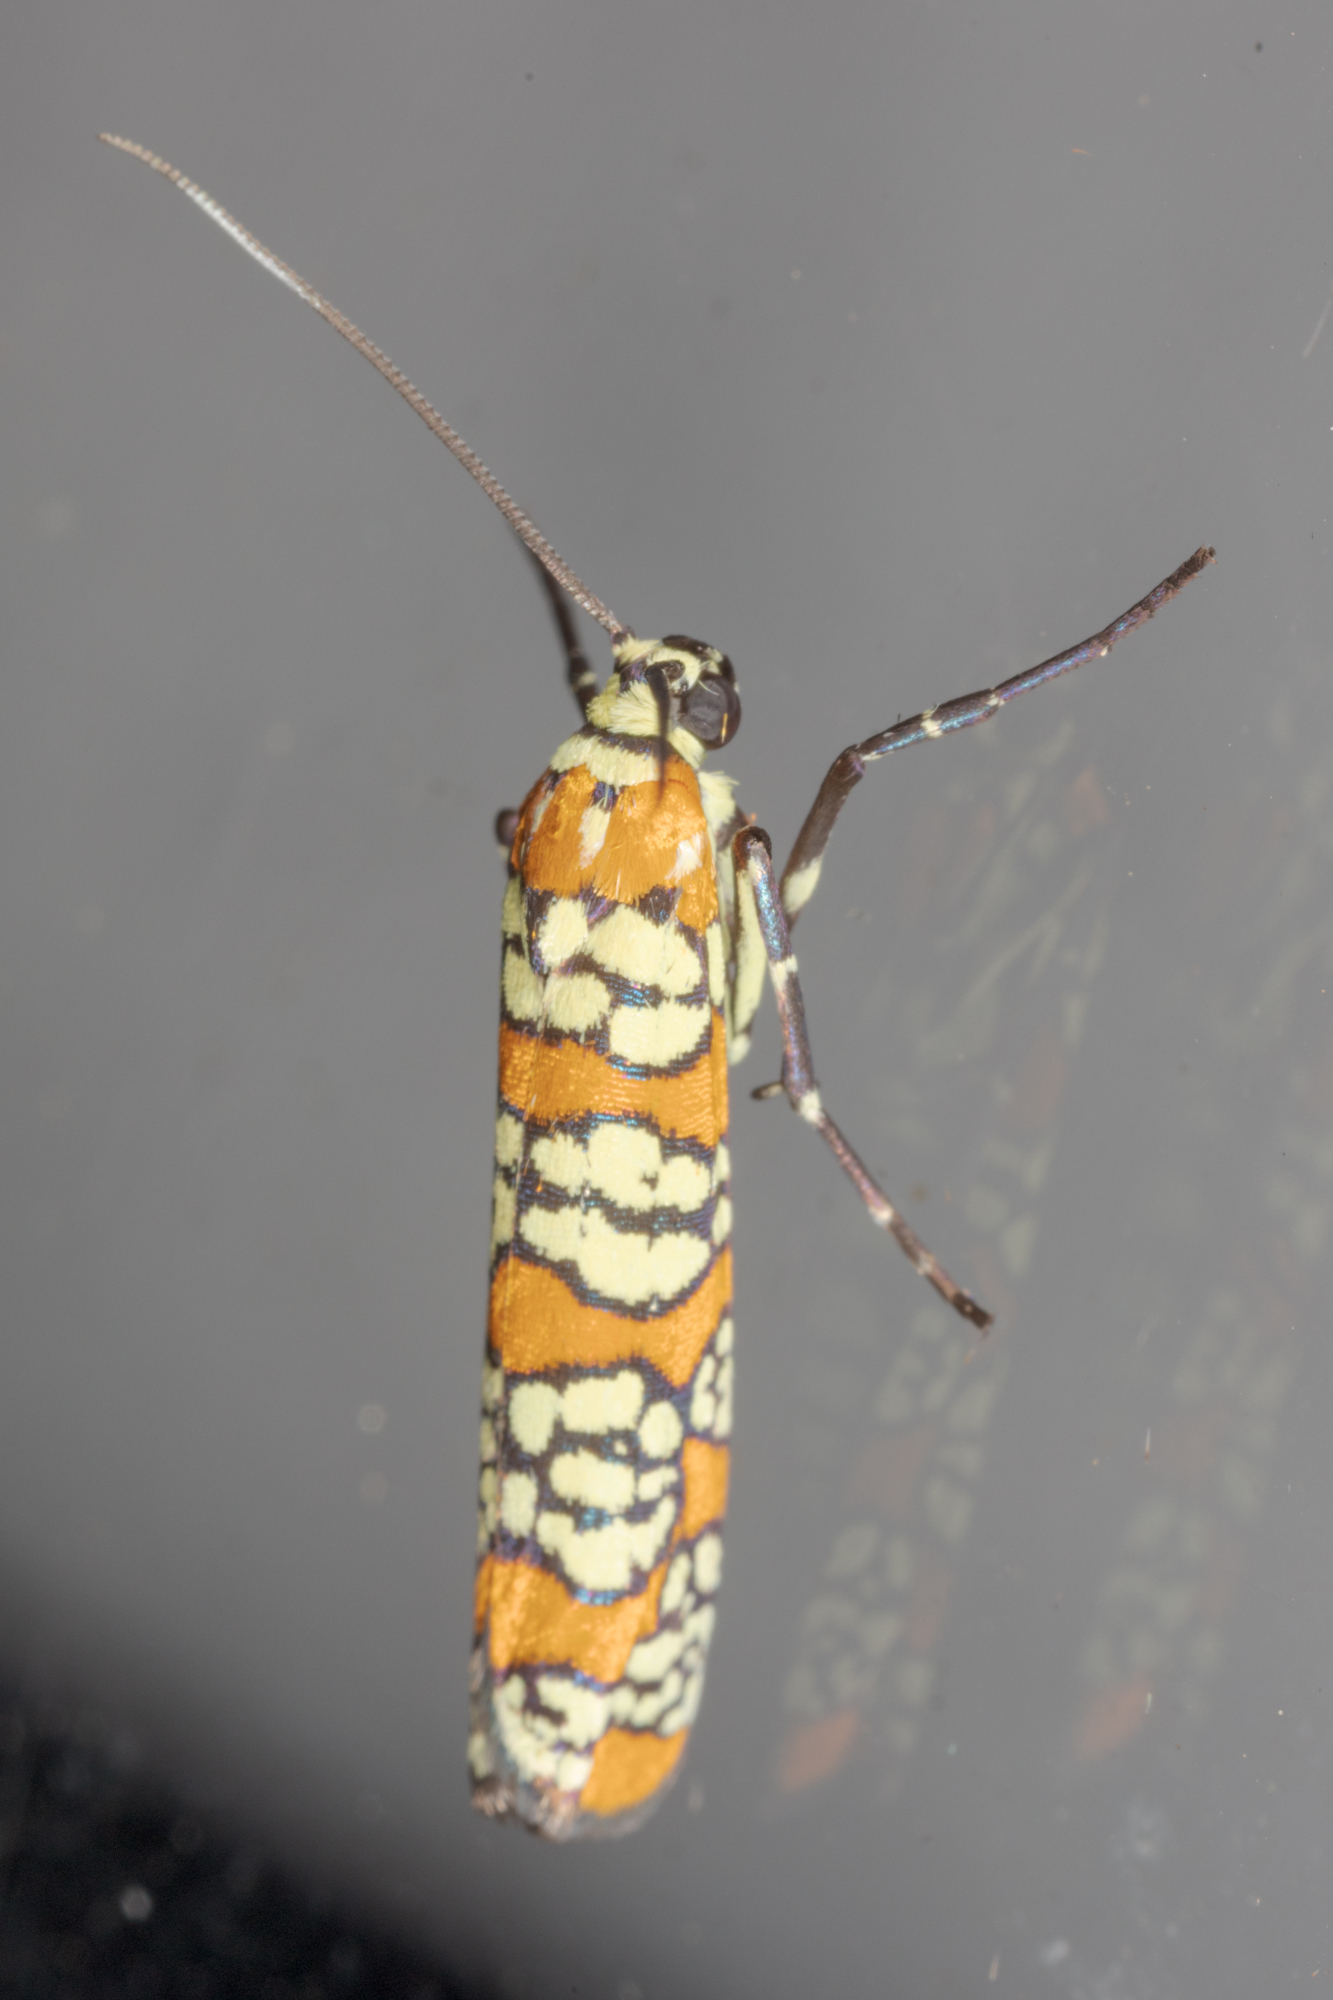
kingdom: Animalia
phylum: Arthropoda
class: Insecta
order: Lepidoptera
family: Attevidae
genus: Atteva
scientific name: Atteva punctella
